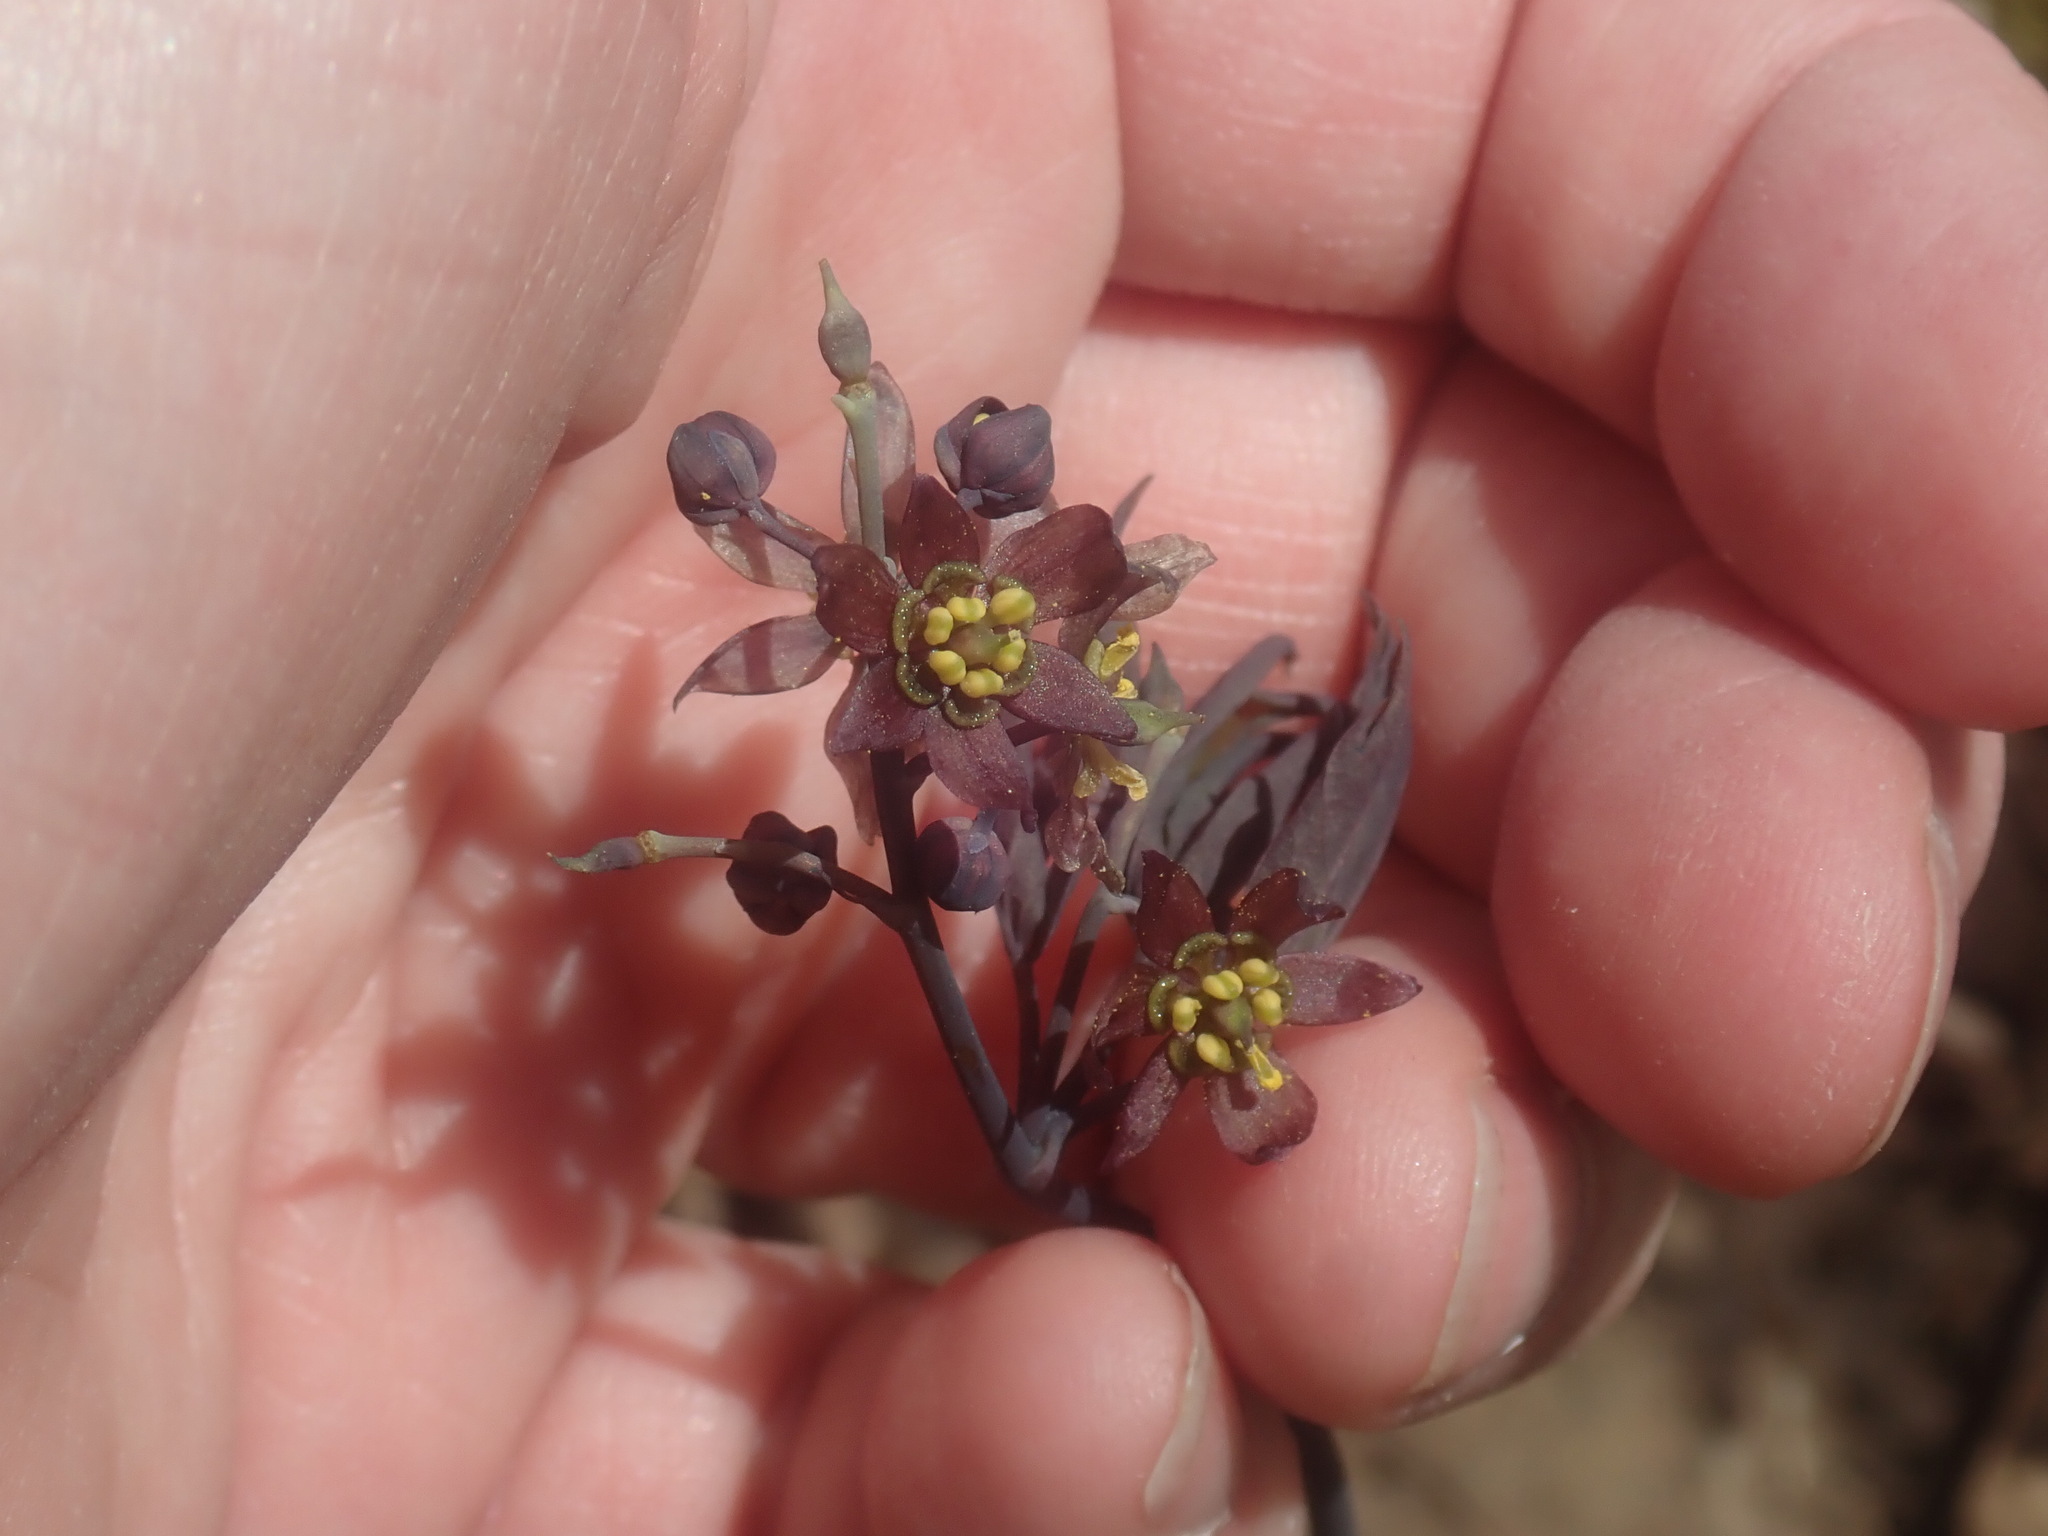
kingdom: Plantae
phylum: Tracheophyta
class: Magnoliopsida
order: Ranunculales
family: Berberidaceae
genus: Caulophyllum
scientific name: Caulophyllum giganteum
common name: Blue cohosh
